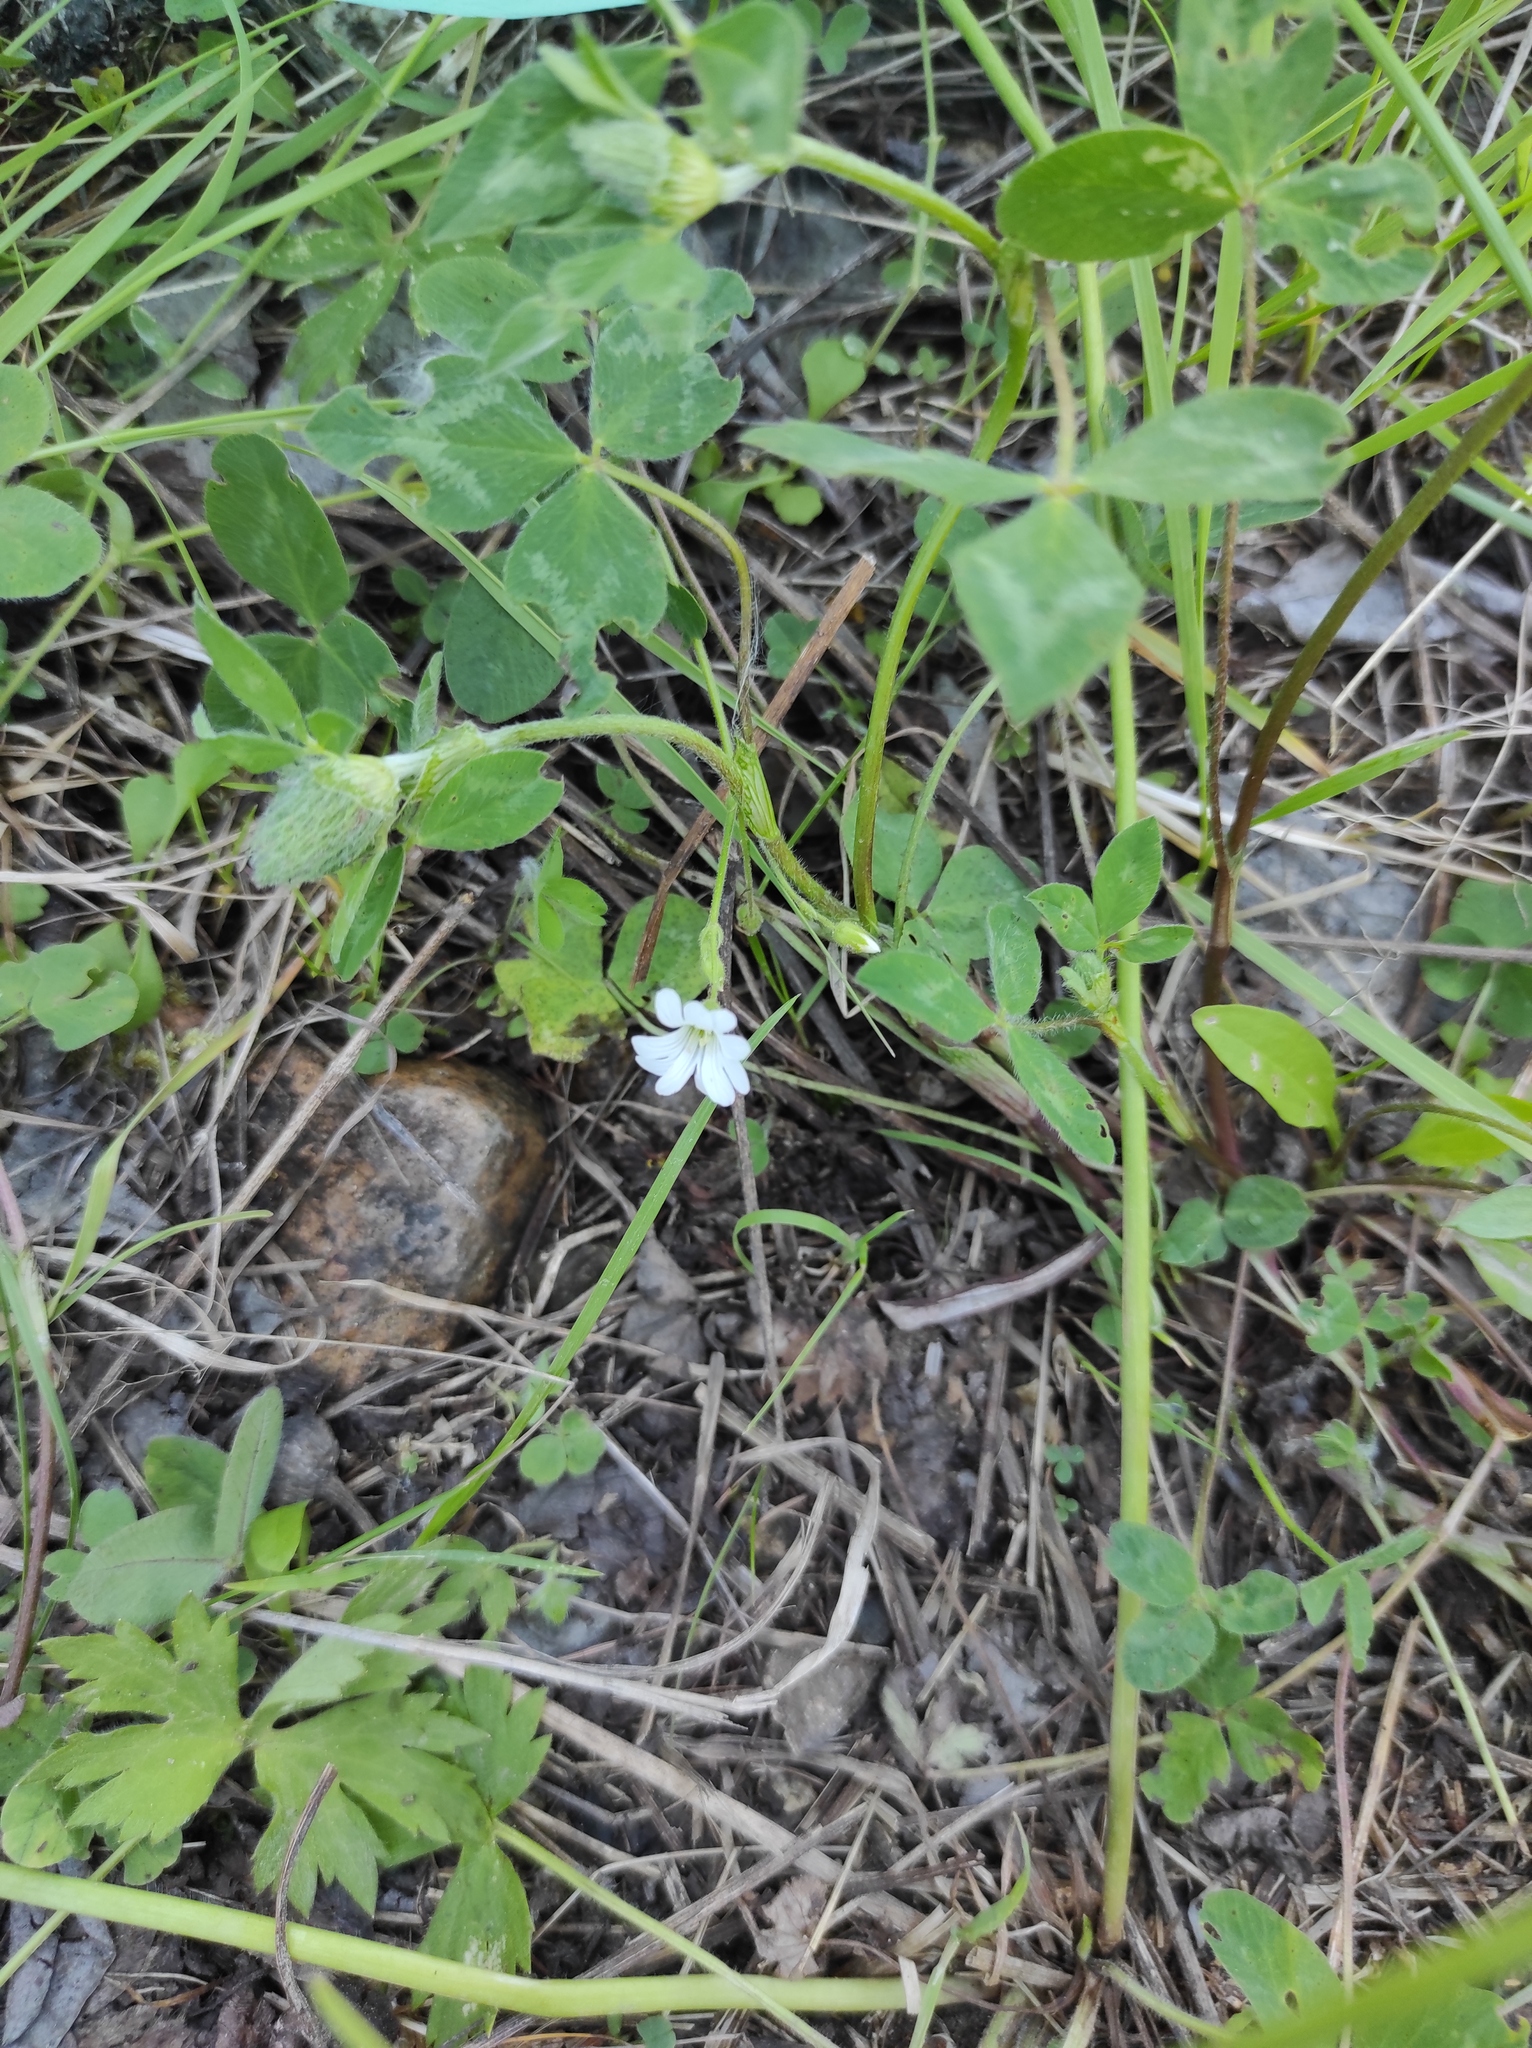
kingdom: Plantae
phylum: Tracheophyta
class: Magnoliopsida
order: Fabales
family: Fabaceae
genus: Trifolium
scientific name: Trifolium pratense
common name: Red clover
